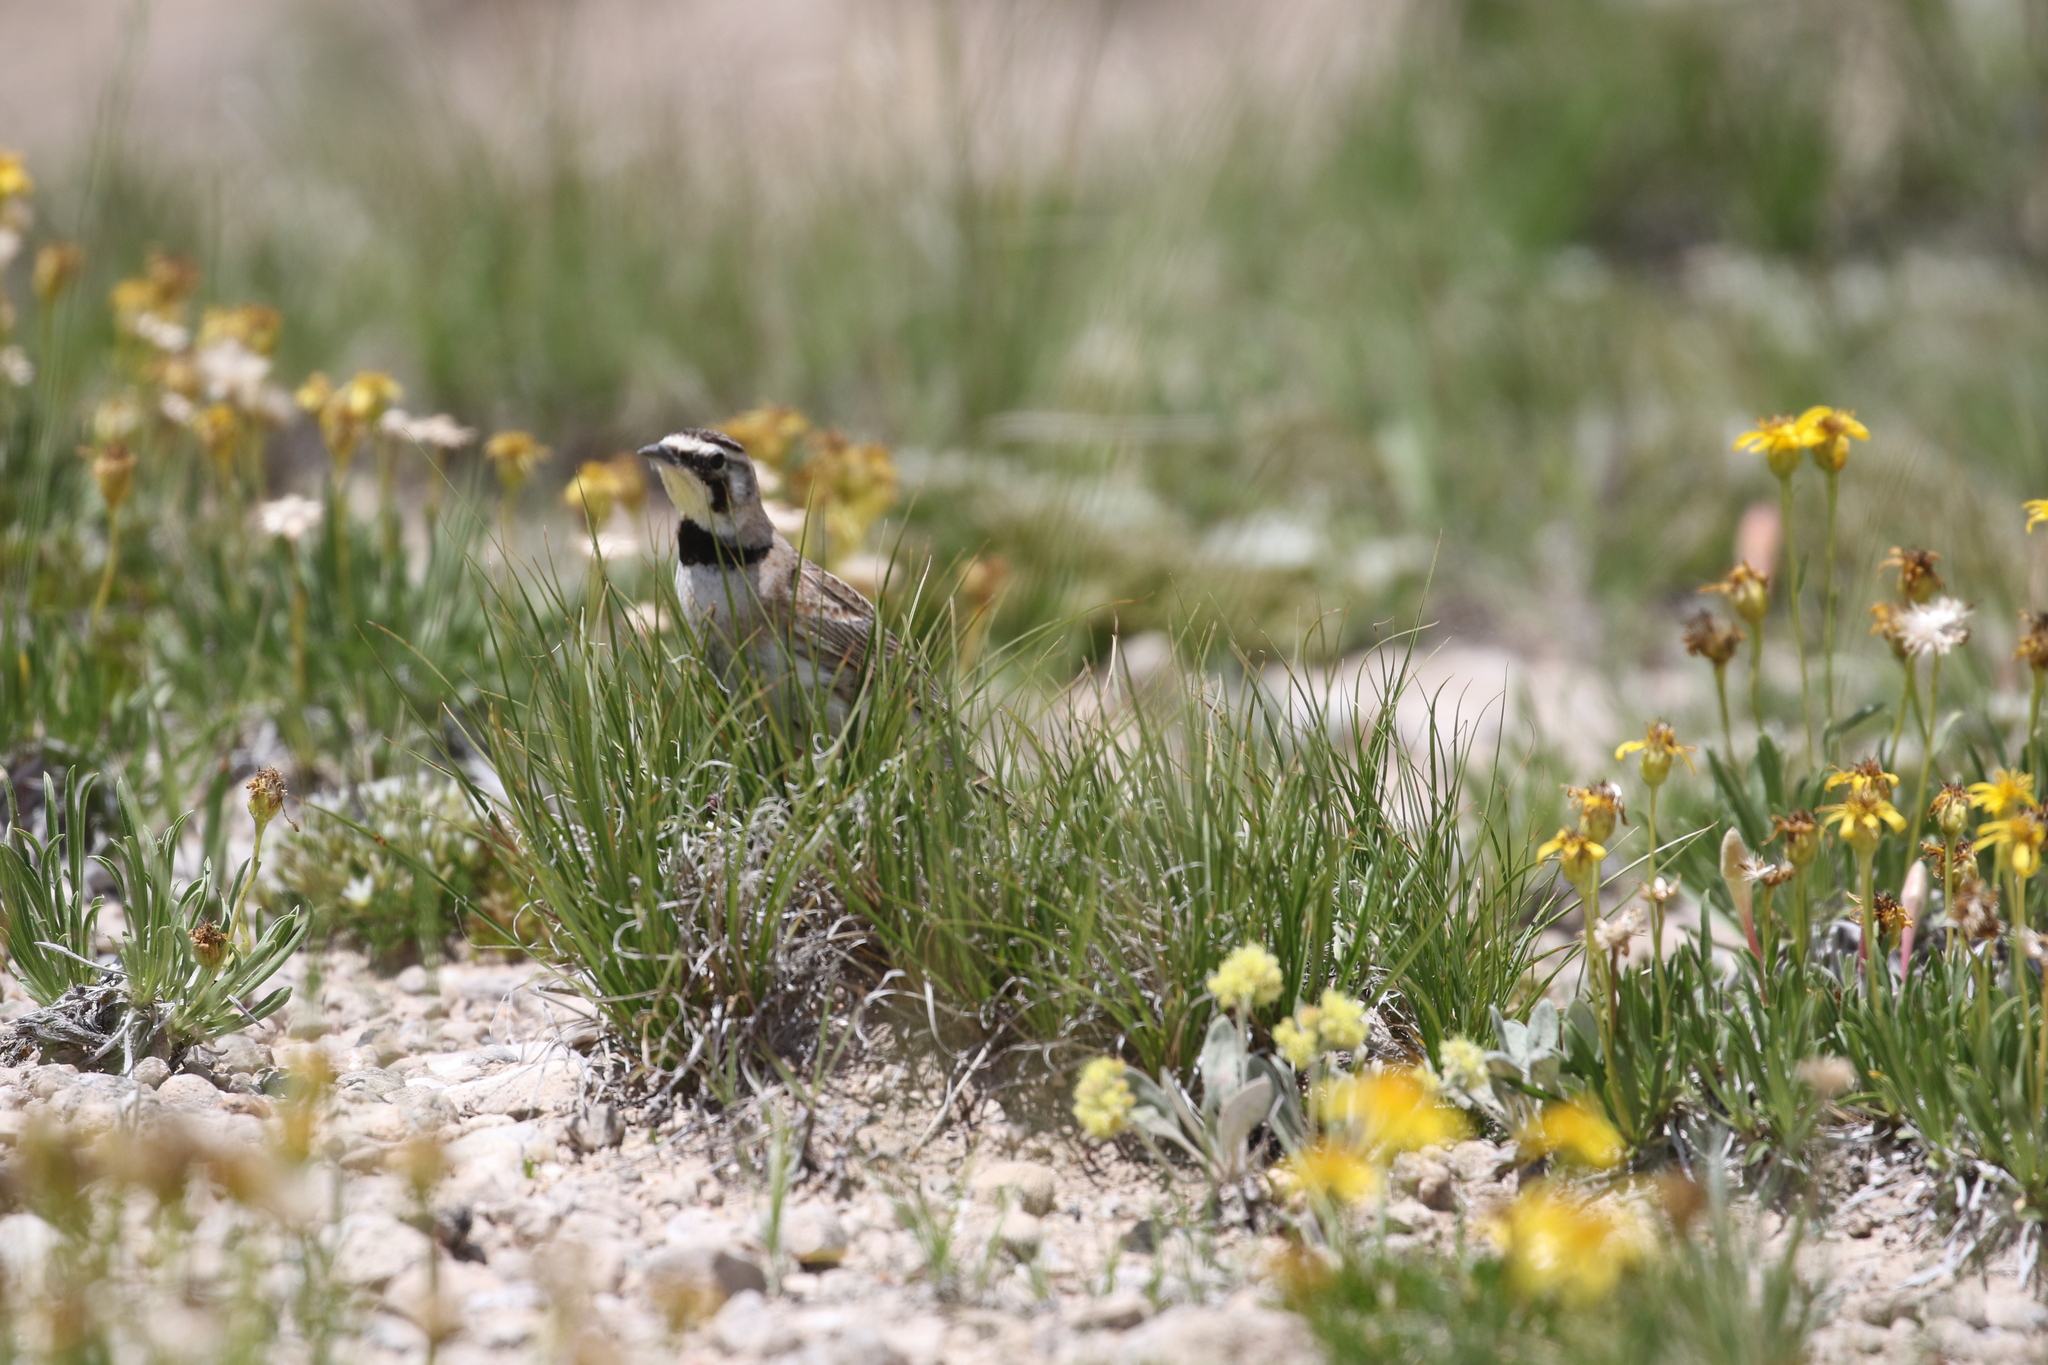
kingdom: Animalia
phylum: Chordata
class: Aves
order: Passeriformes
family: Alaudidae
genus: Eremophila
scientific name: Eremophila alpestris
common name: Horned lark
